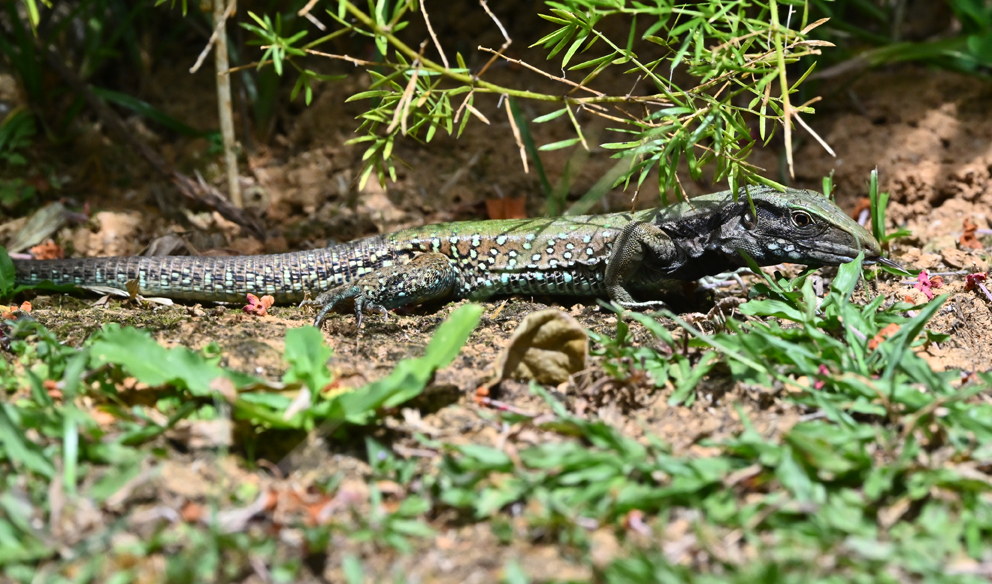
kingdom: Animalia
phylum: Chordata
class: Squamata
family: Teiidae
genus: Ameiva
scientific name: Ameiva atrigularis
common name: Venezuelan ameiva
